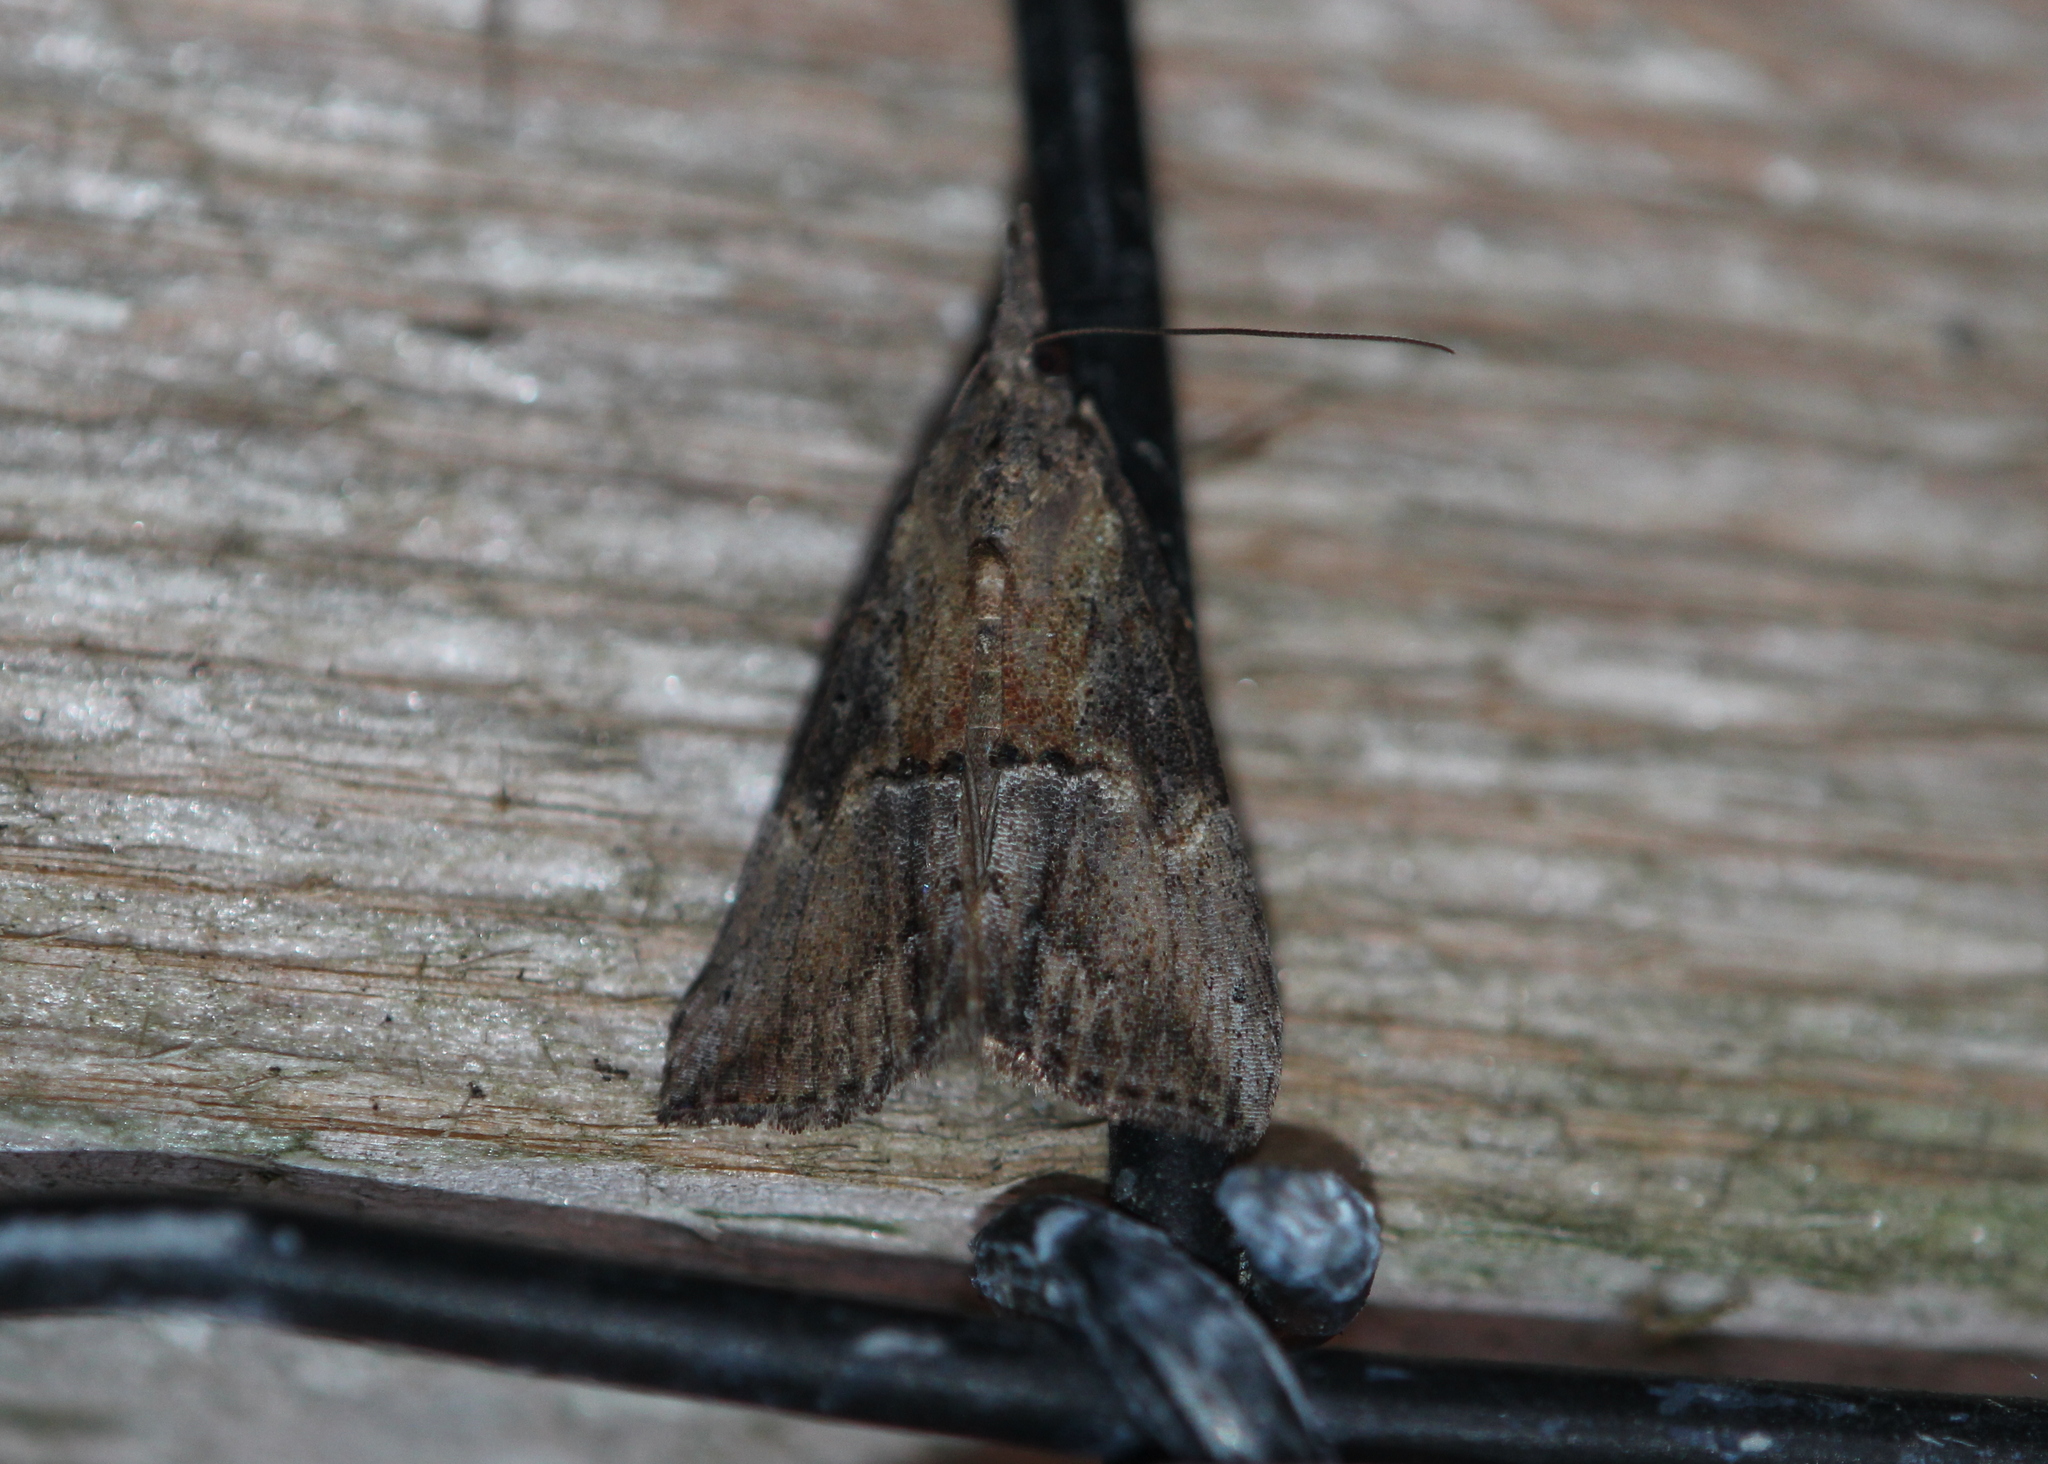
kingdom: Animalia
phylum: Arthropoda
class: Insecta
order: Lepidoptera
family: Erebidae
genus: Hypena
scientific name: Hypena scabra
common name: Green cloverworm
